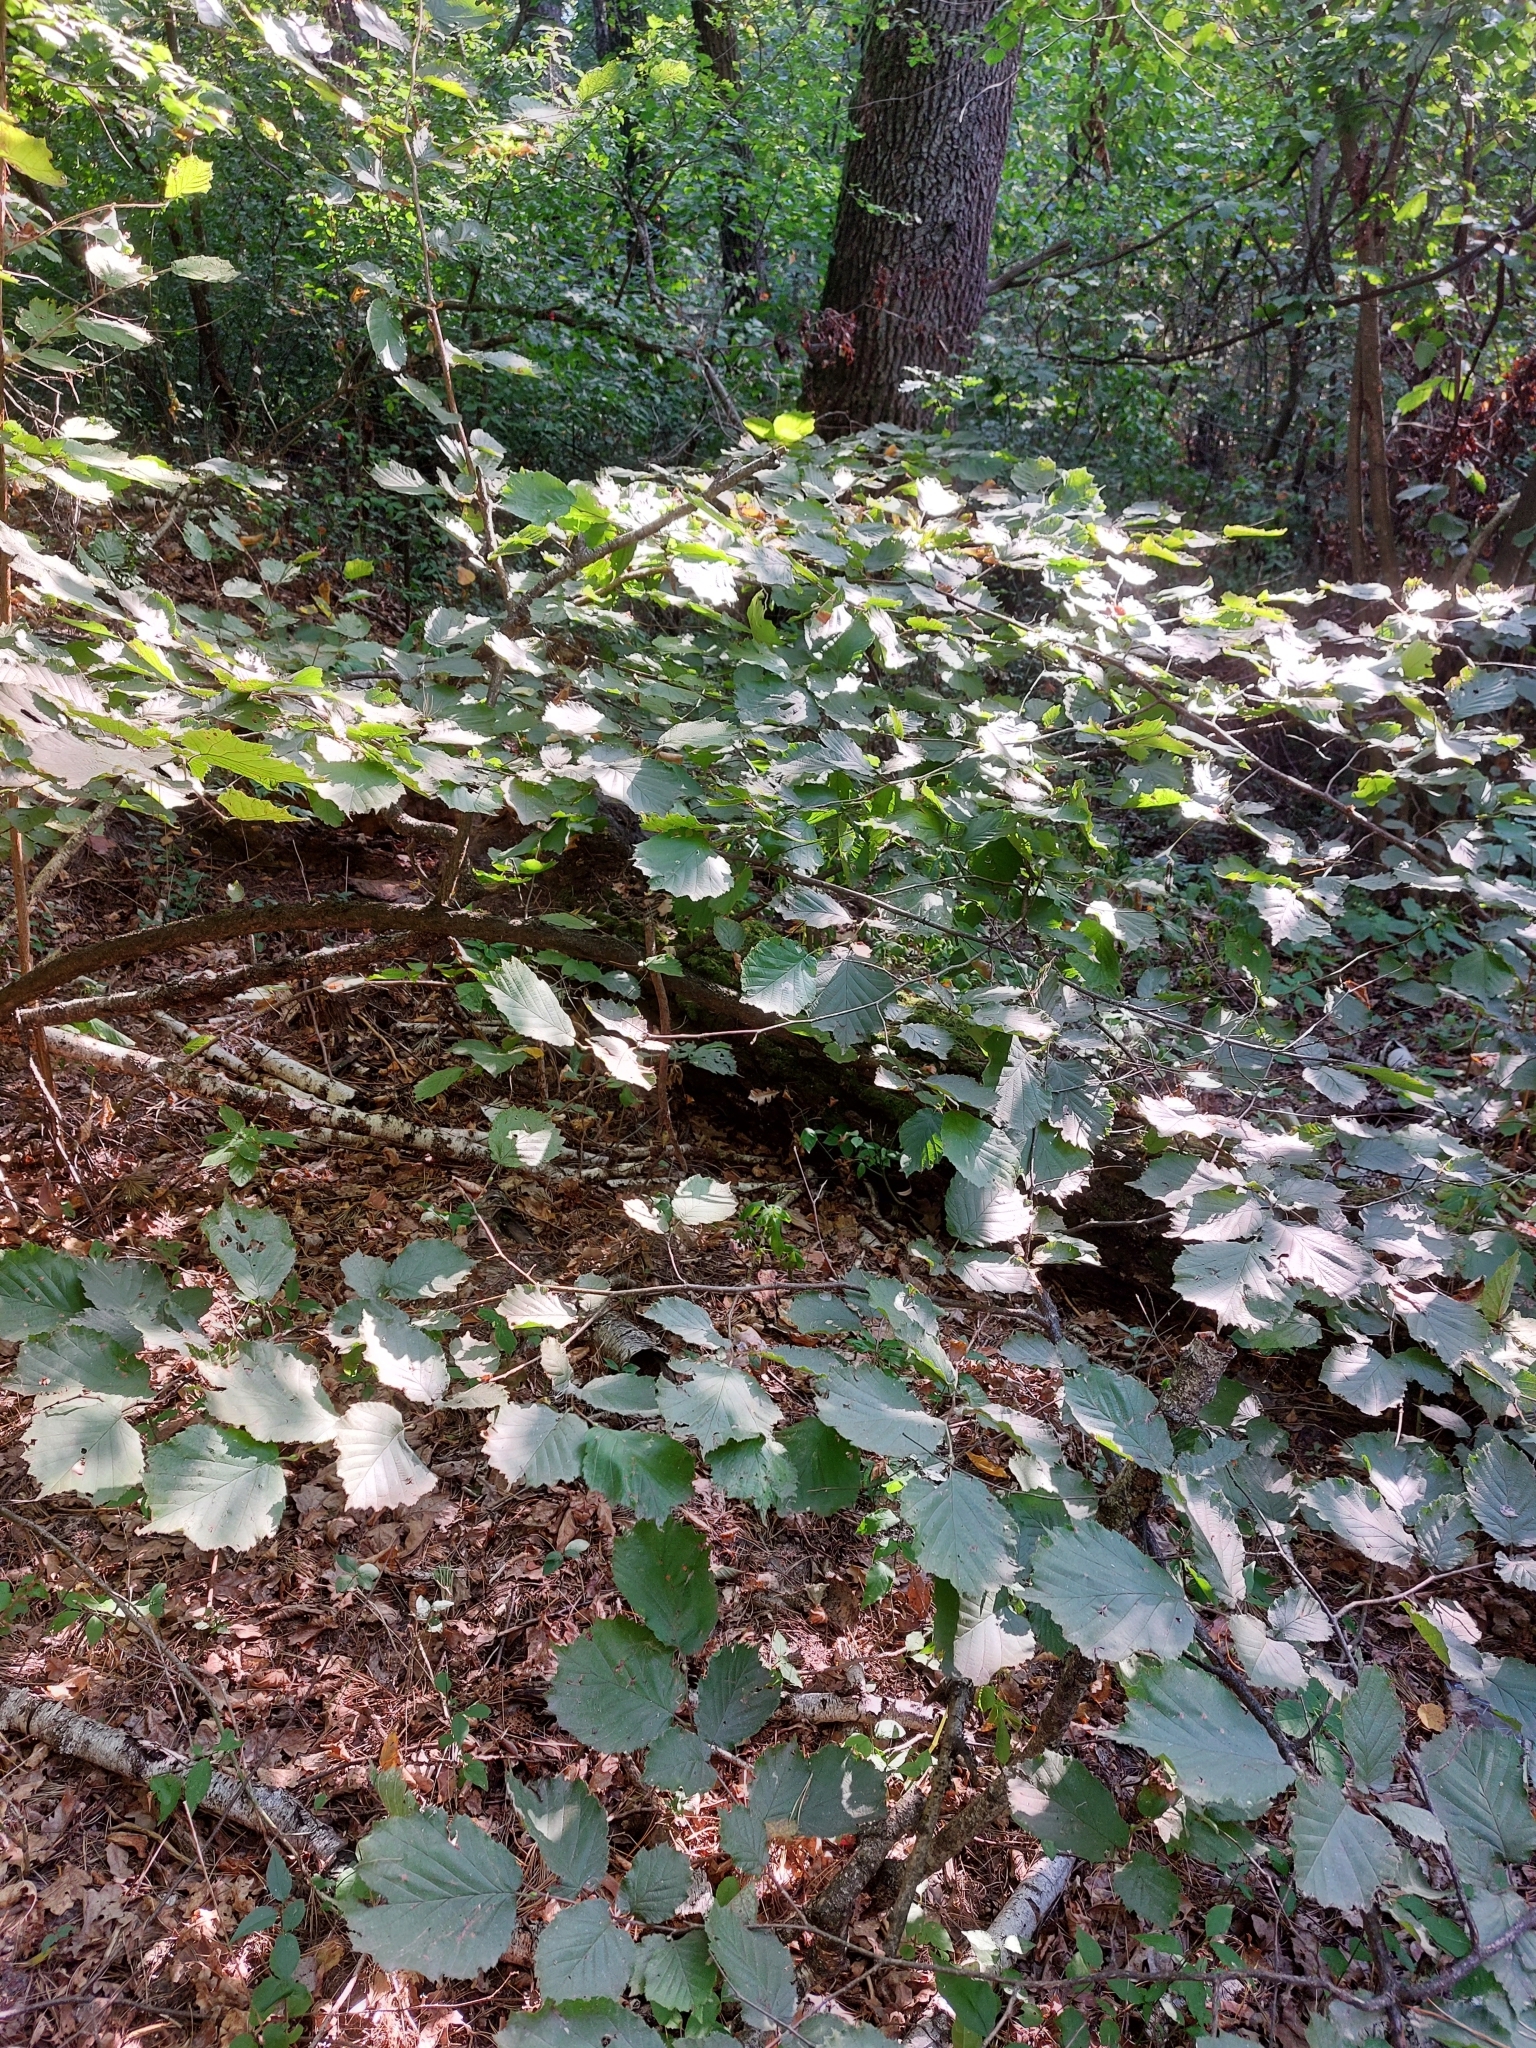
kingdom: Plantae
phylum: Tracheophyta
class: Magnoliopsida
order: Fagales
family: Betulaceae
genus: Corylus
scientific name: Corylus avellana
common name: European hazel
